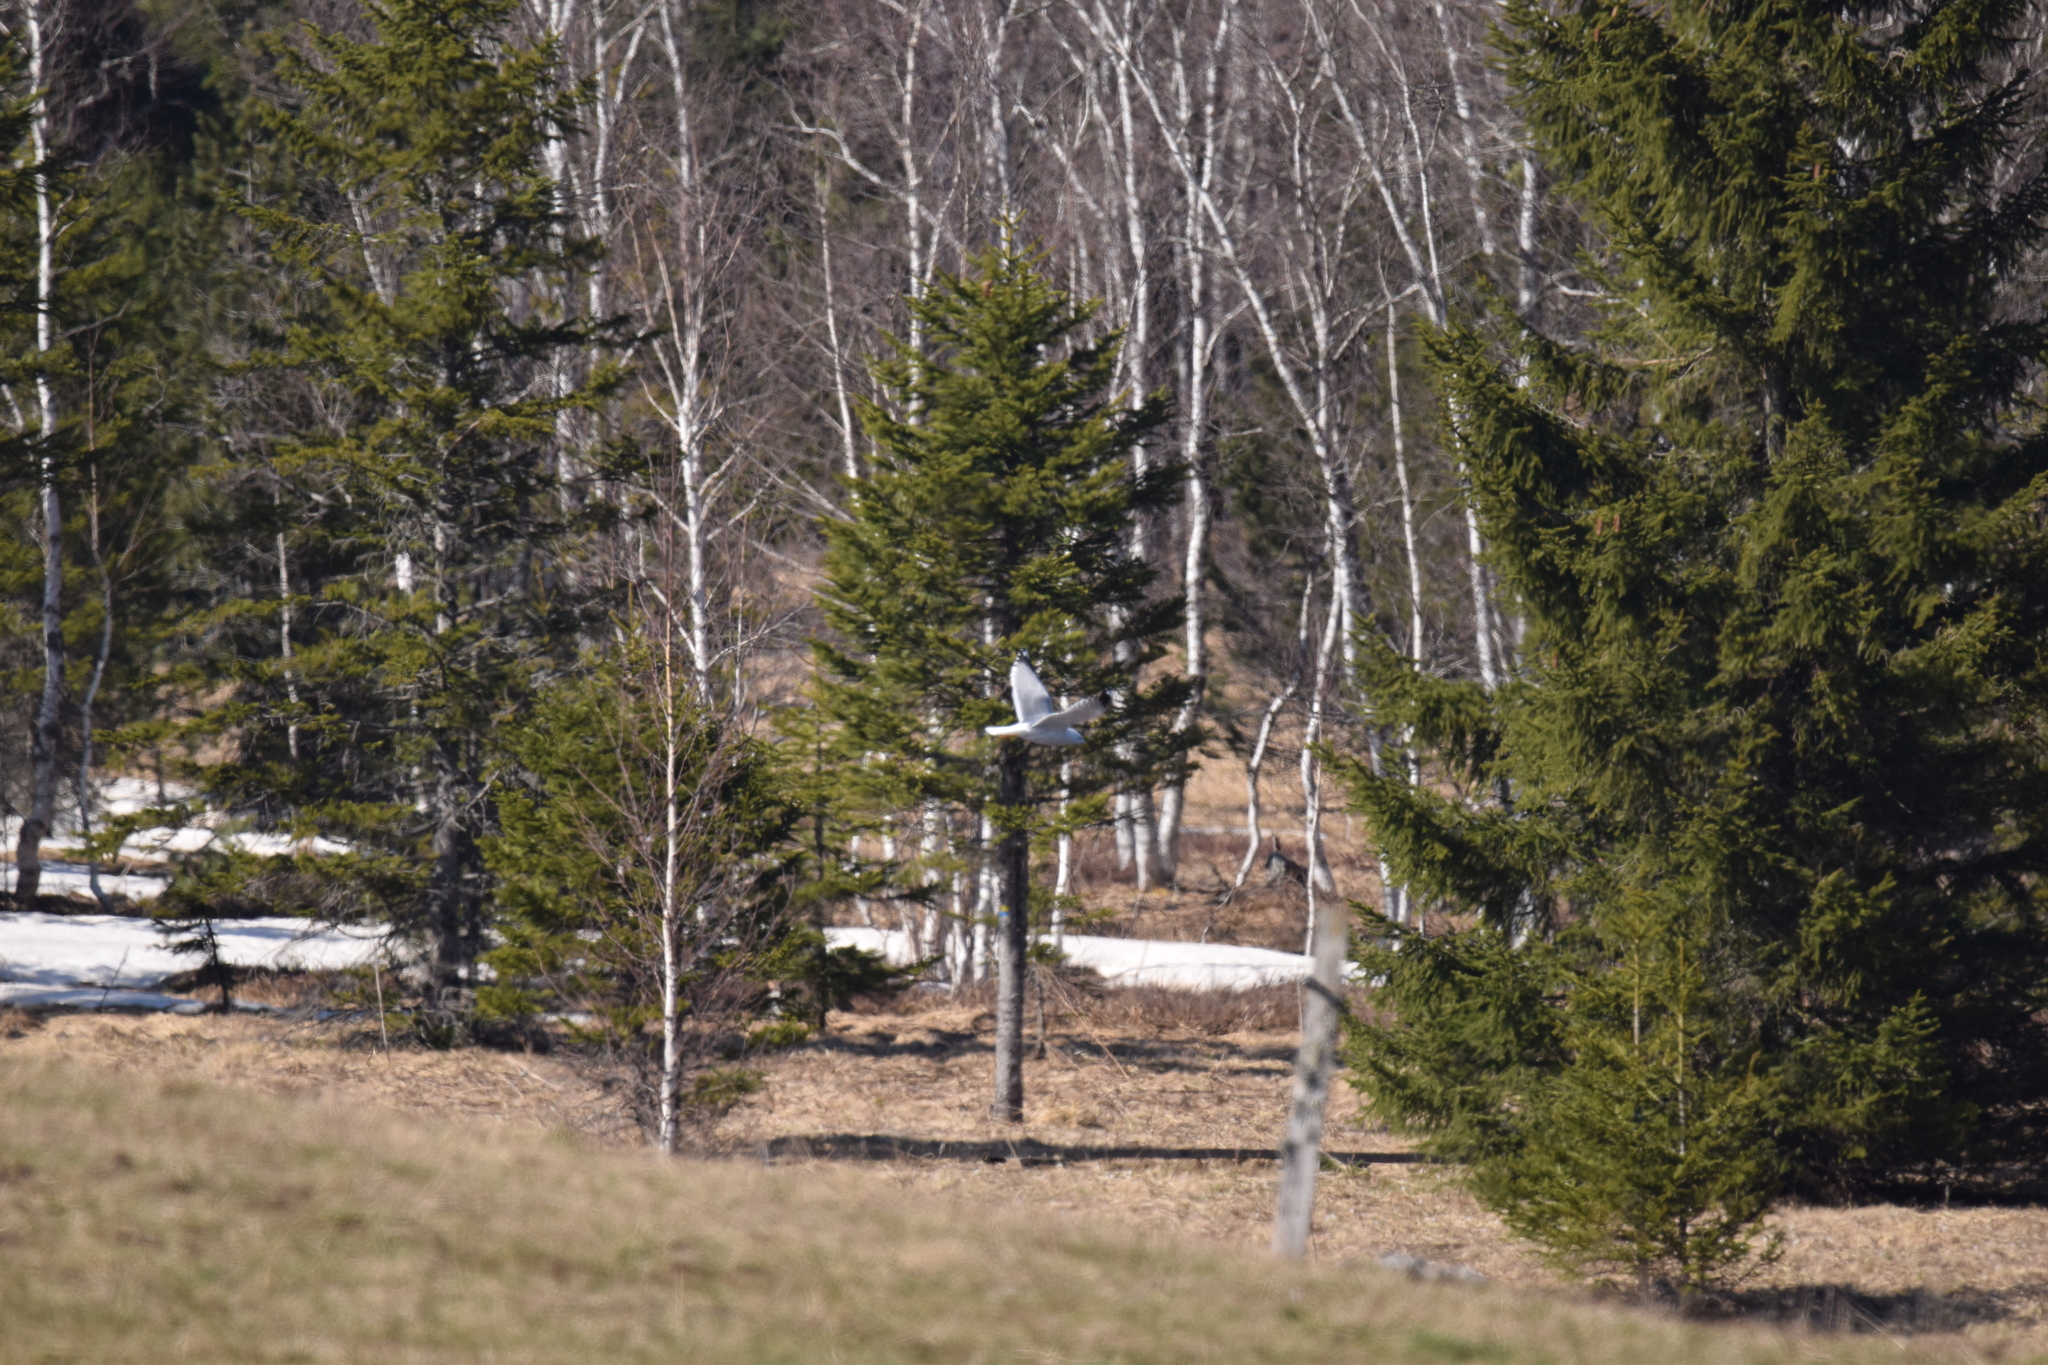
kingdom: Animalia
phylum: Chordata
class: Aves
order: Charadriiformes
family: Laridae
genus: Larus
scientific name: Larus michahellis
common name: Yellow-legged gull
